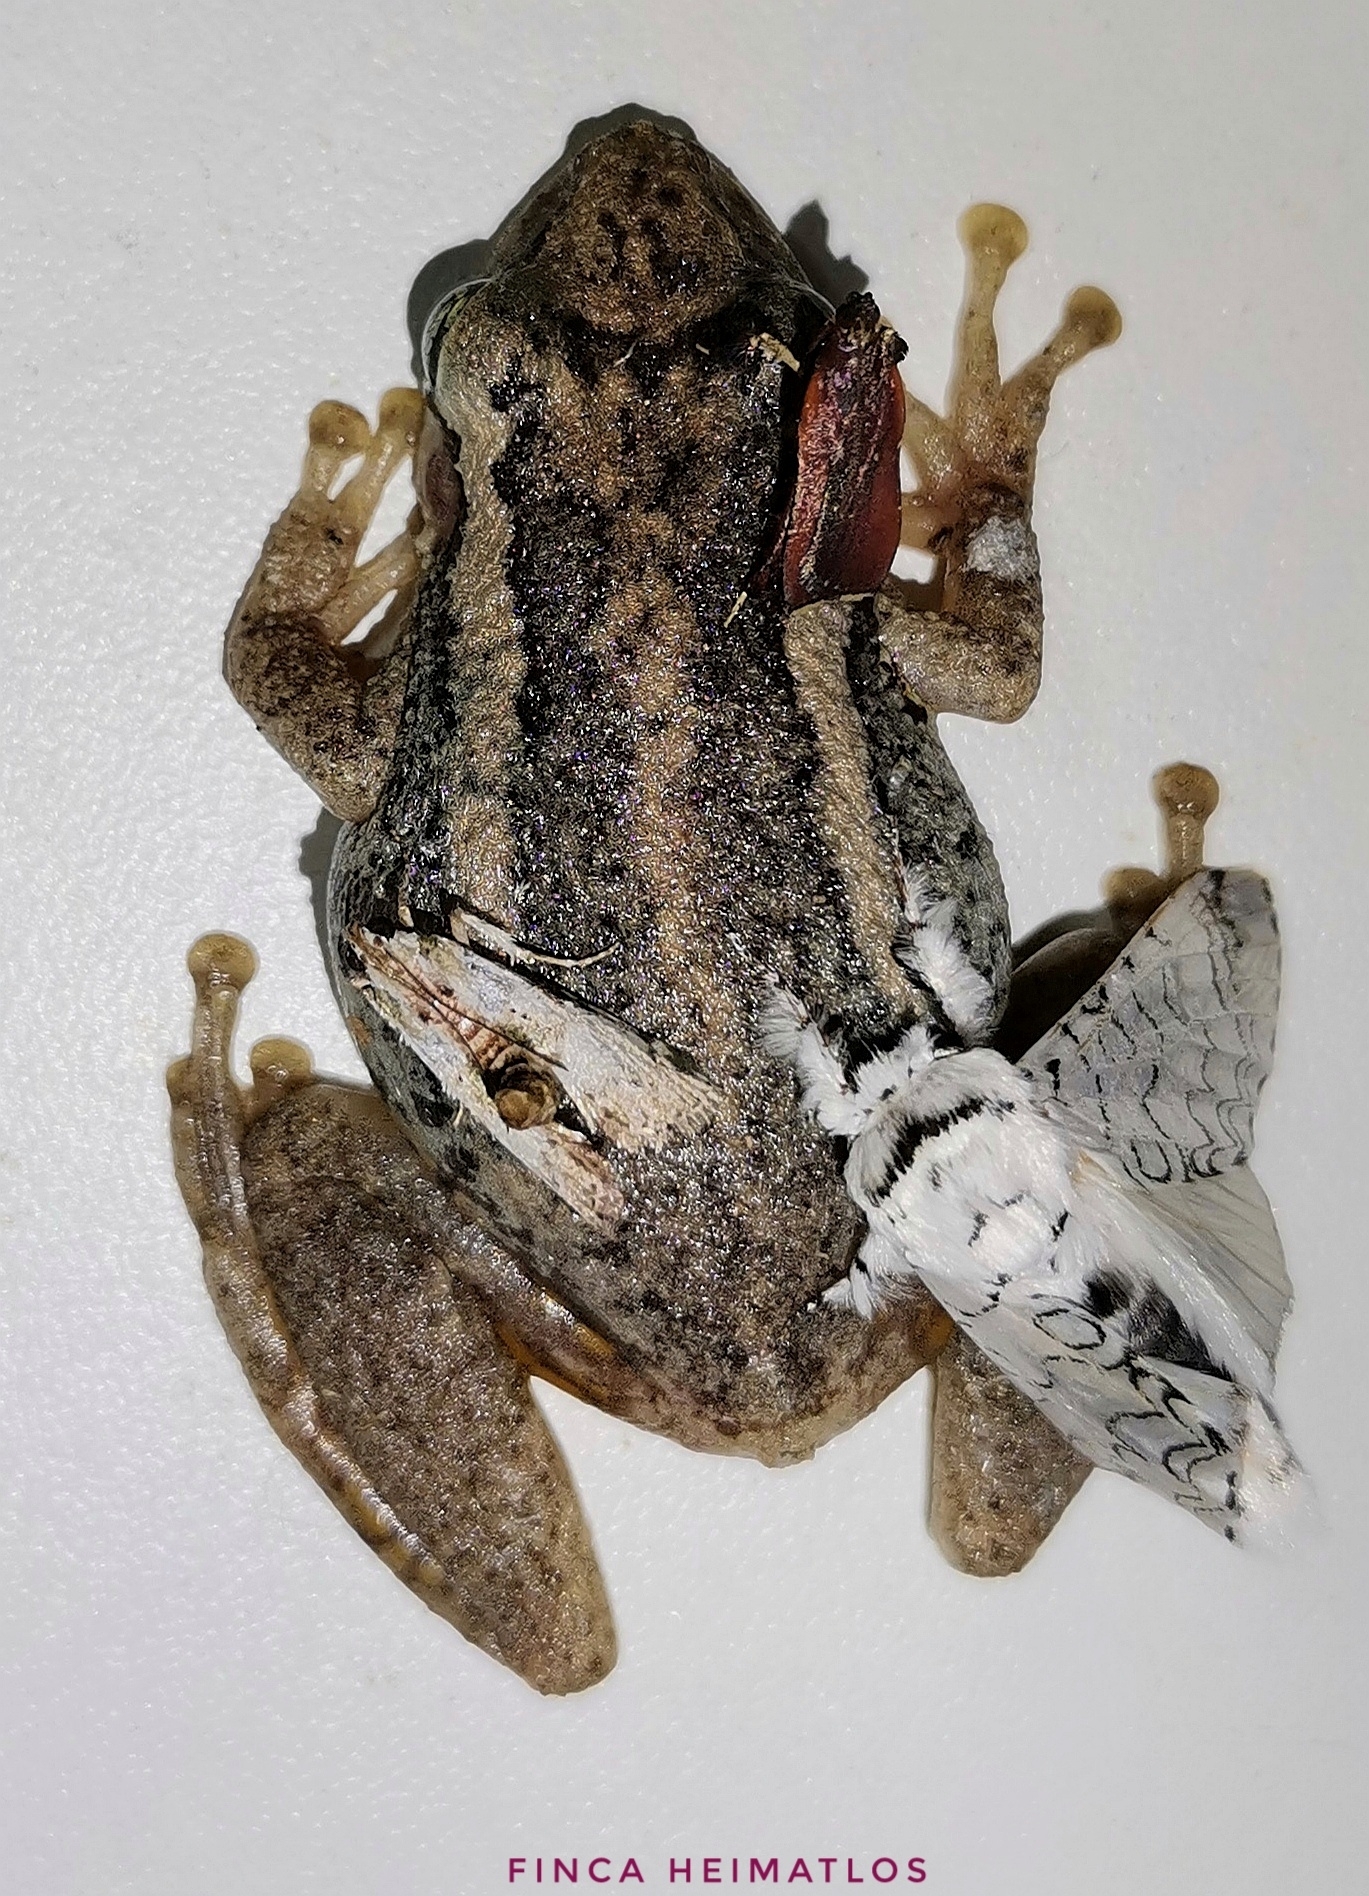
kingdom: Animalia
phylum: Chordata
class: Amphibia
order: Anura
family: Hylidae
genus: Scinax
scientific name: Scinax ruber
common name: Red snouted treefrog
